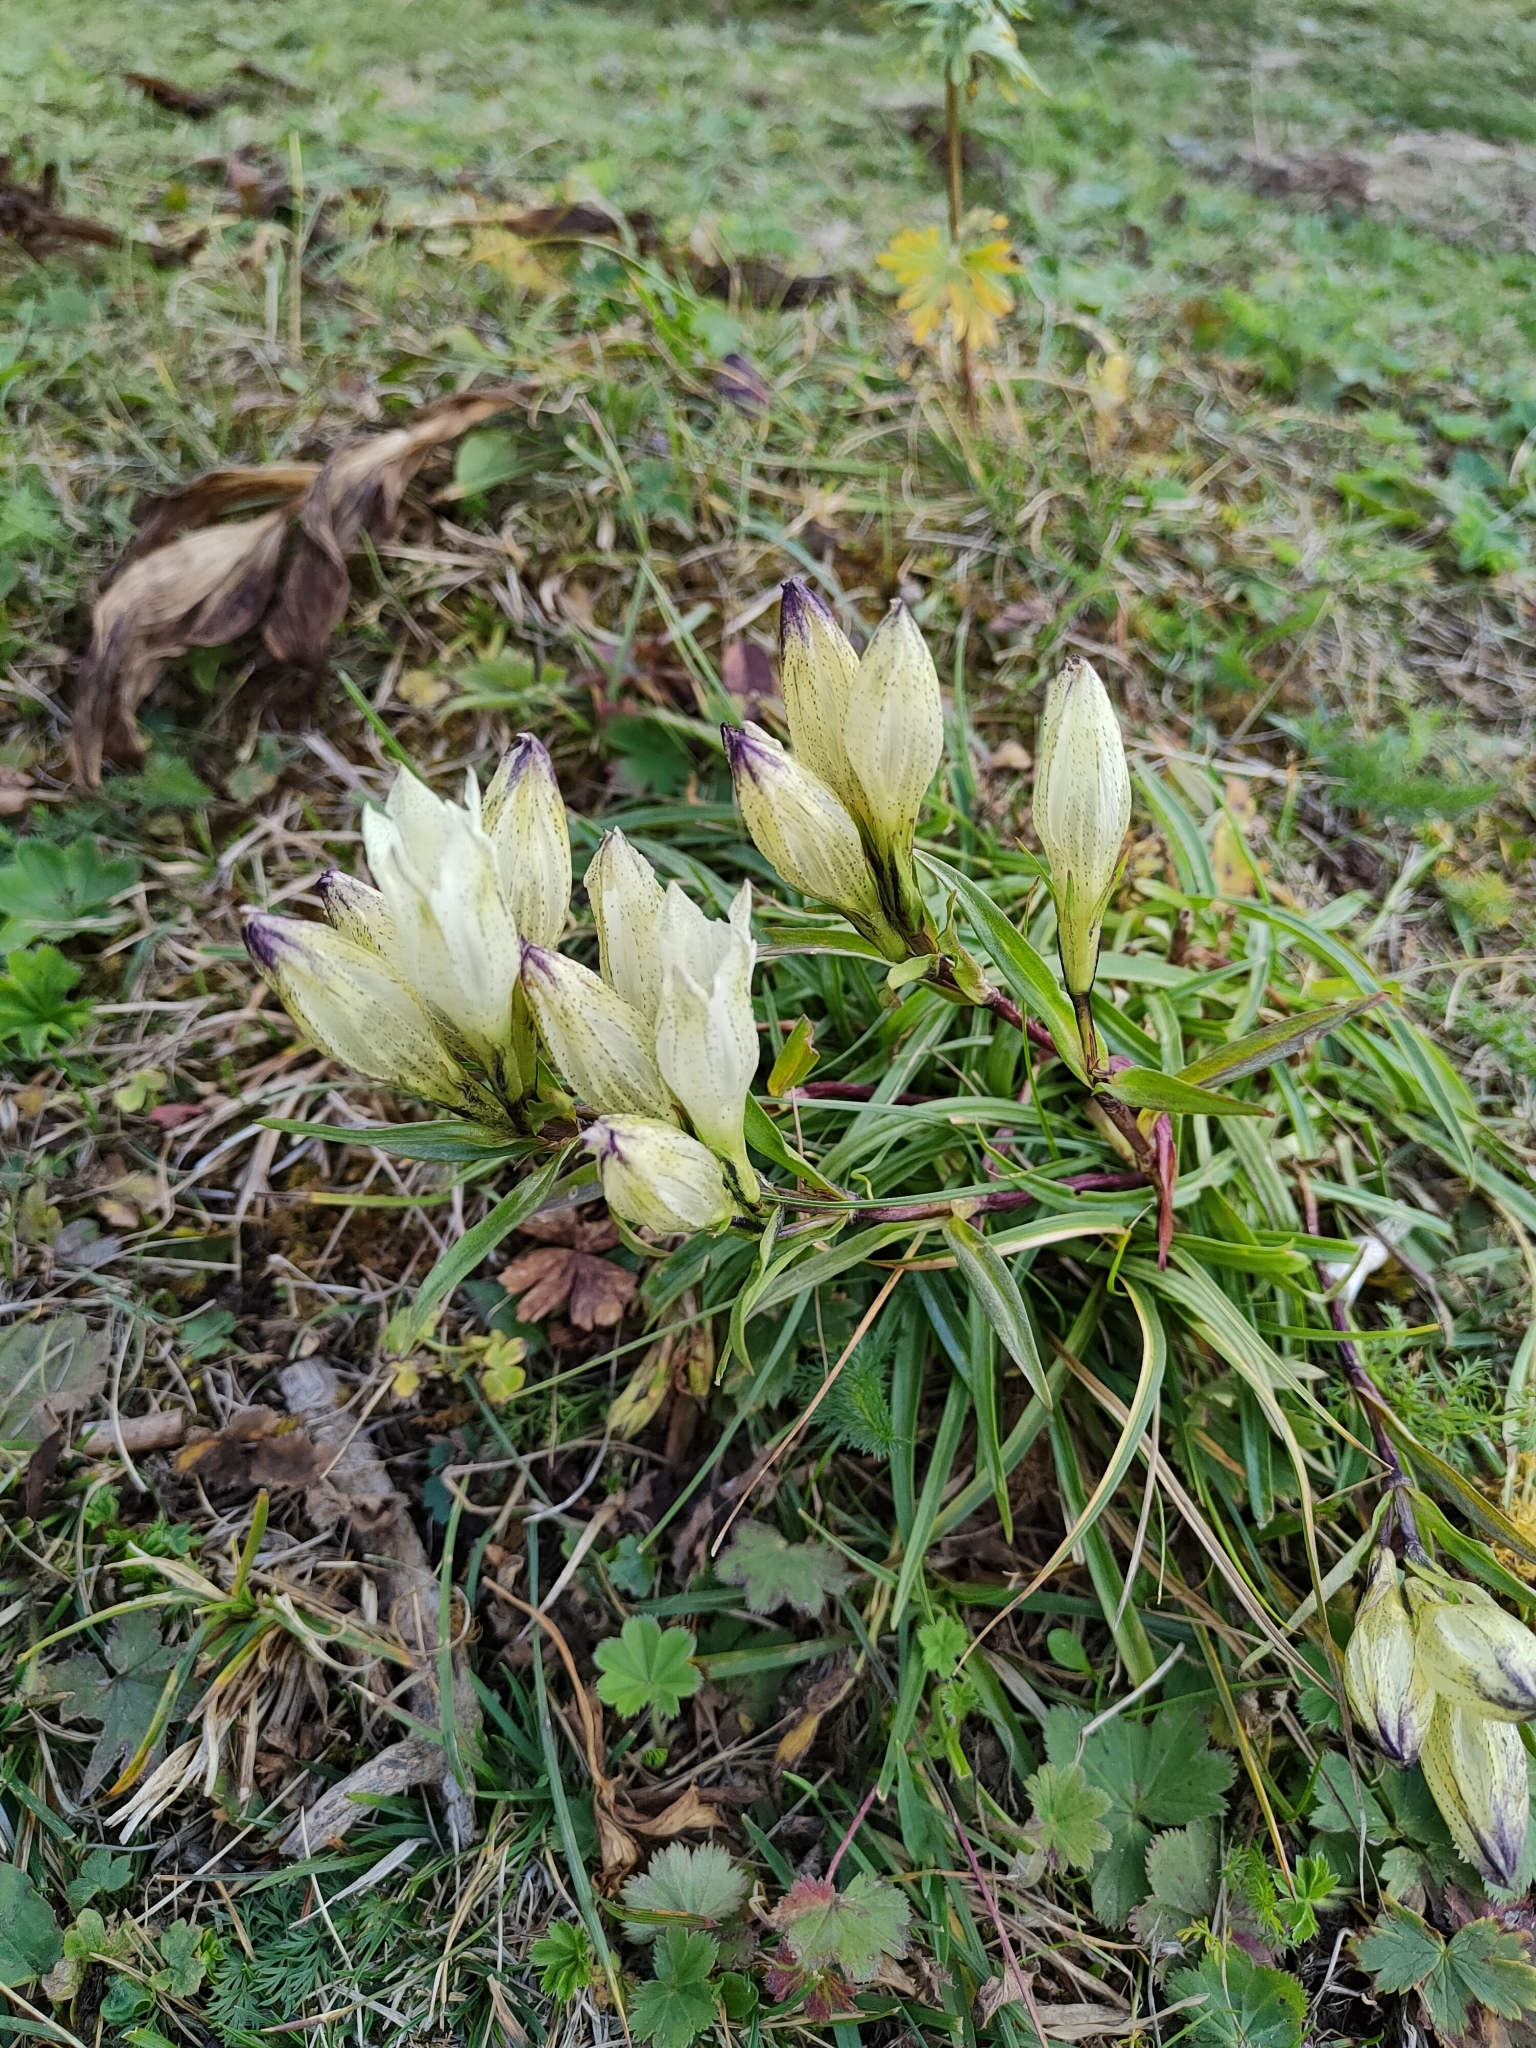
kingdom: Plantae
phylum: Tracheophyta
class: Magnoliopsida
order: Gentianales
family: Gentianaceae
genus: Gentiana
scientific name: Gentiana algida
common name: Arctic gentian
